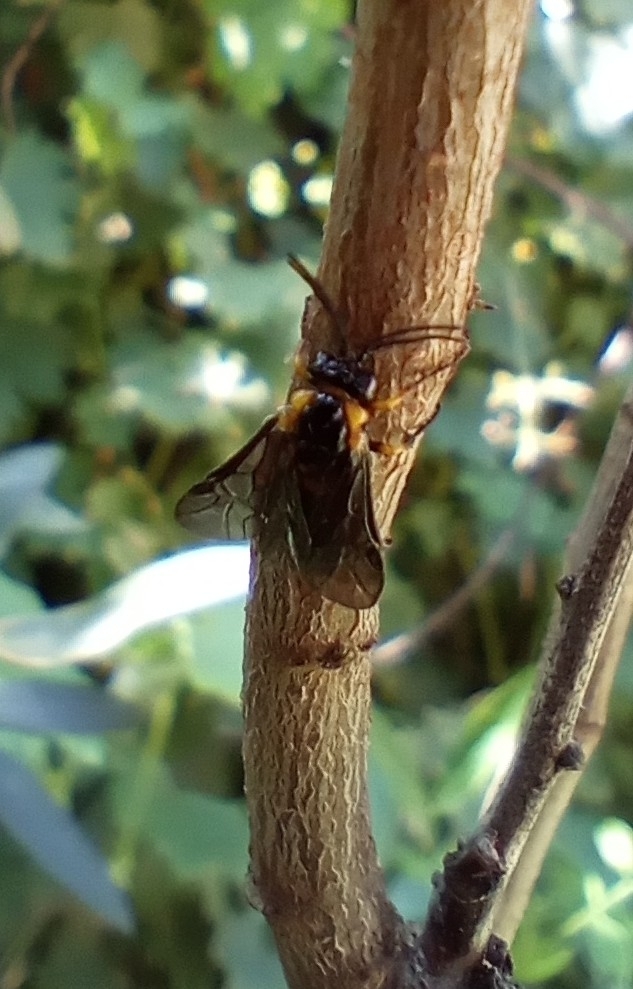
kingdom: Animalia
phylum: Arthropoda
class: Insecta
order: Hymenoptera
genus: Adurgoa
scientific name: Adurgoa
